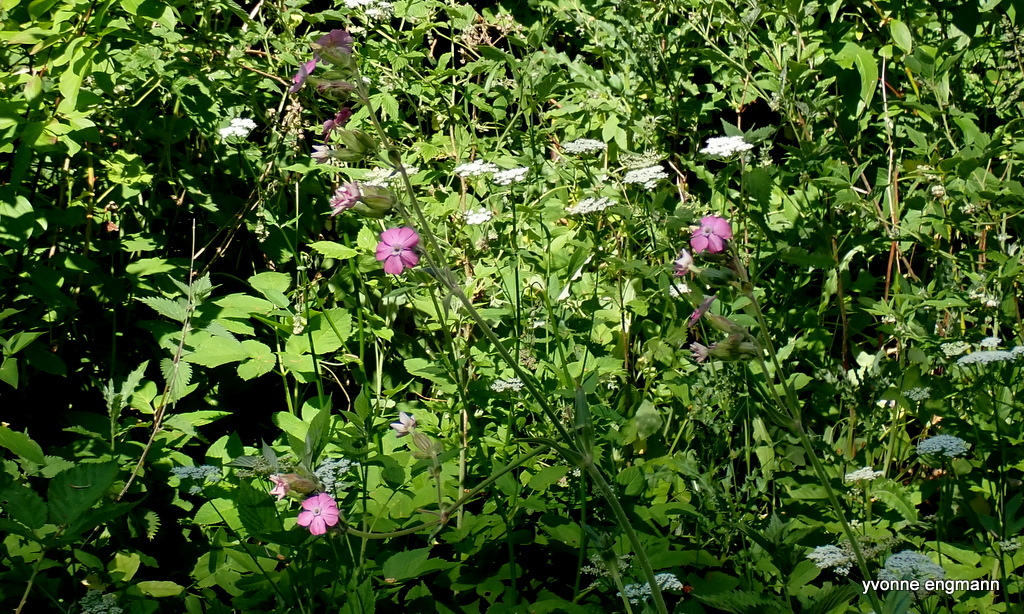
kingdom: Plantae
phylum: Tracheophyta
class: Magnoliopsida
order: Caryophyllales
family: Caryophyllaceae
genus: Silene
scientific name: Silene dioica
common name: Red campion
